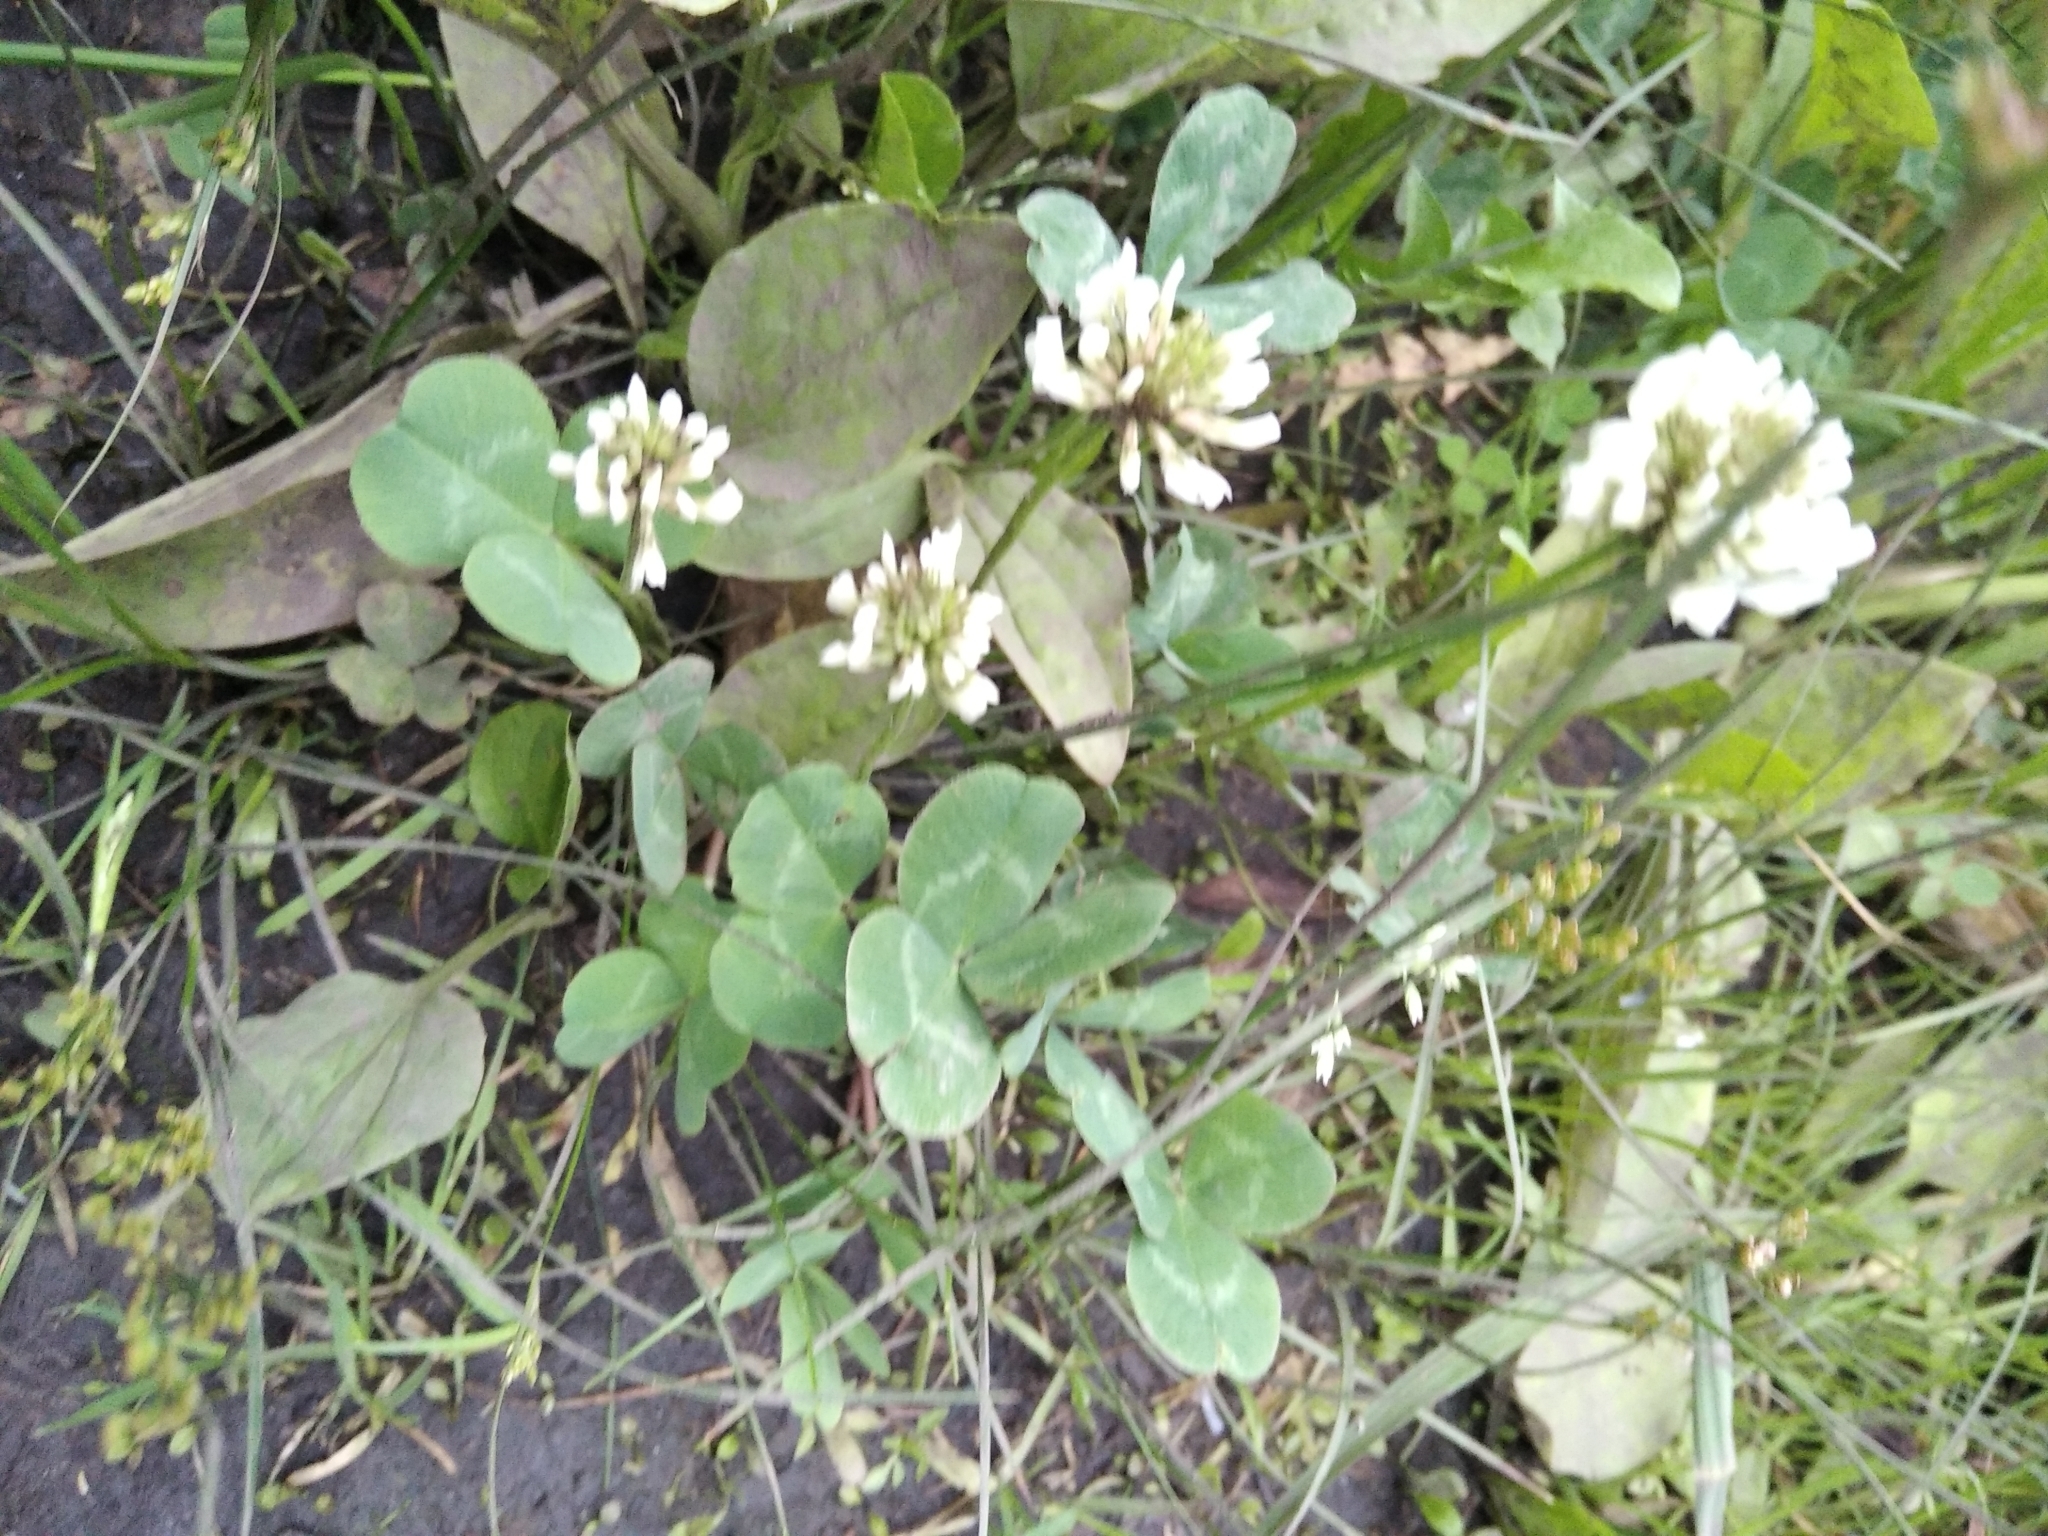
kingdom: Plantae
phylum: Tracheophyta
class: Magnoliopsida
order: Fabales
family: Fabaceae
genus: Trifolium
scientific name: Trifolium repens
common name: White clover
